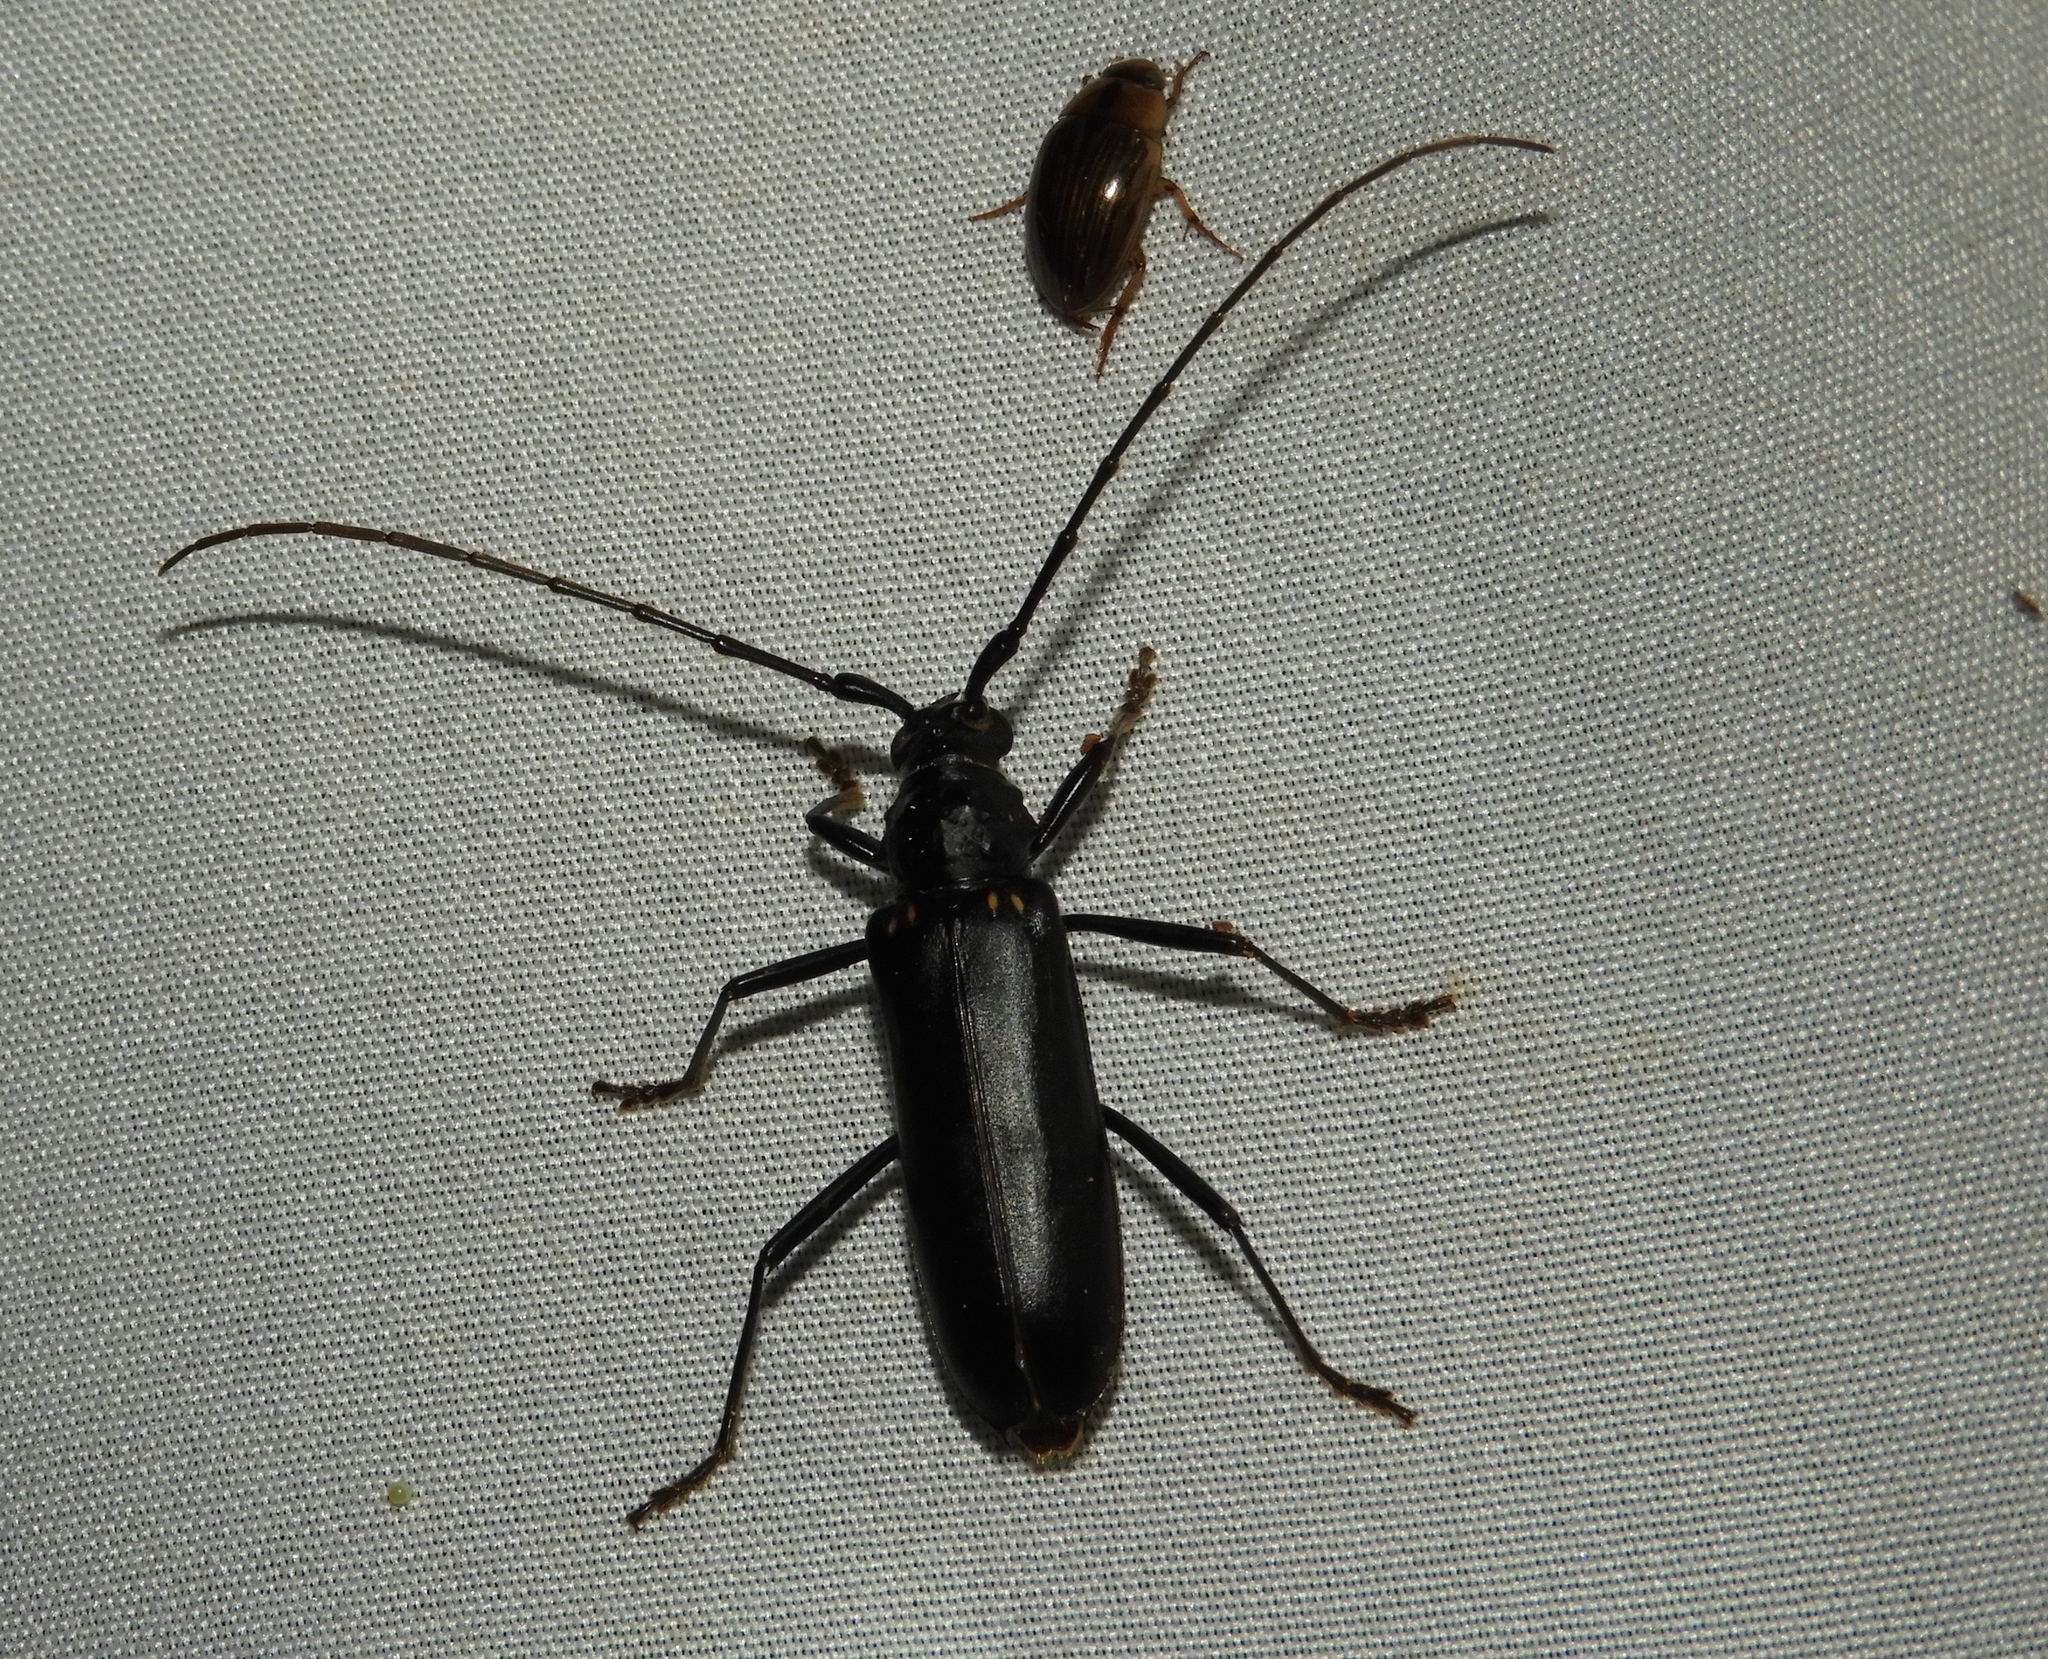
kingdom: Animalia
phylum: Arthropoda
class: Insecta
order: Coleoptera
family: Cerambycidae
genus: Susuacanga
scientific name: Susuacanga ulkei
